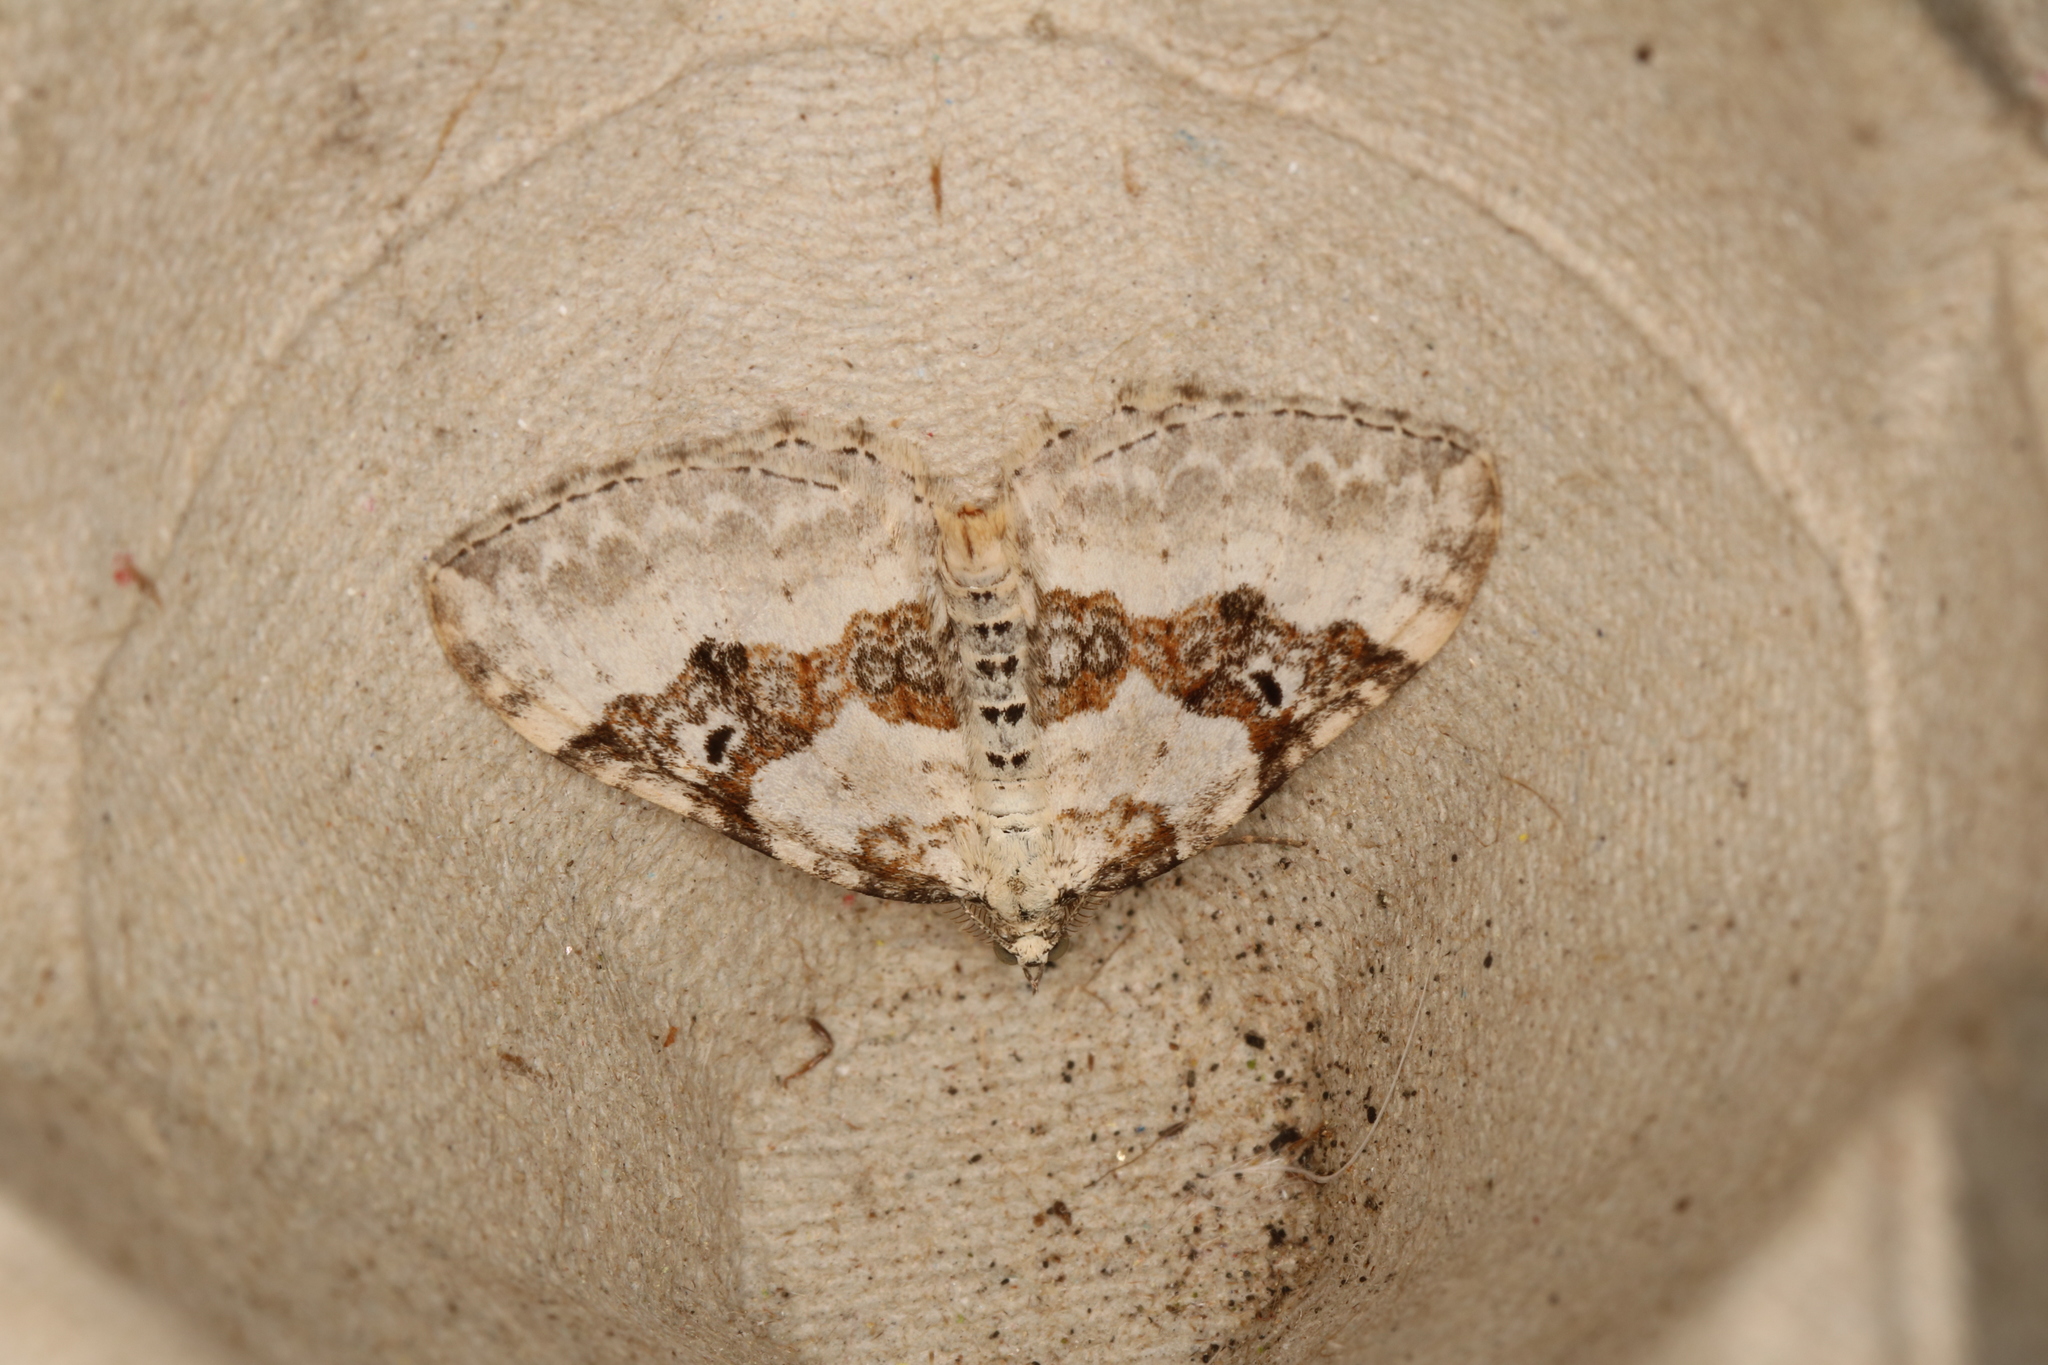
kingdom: Animalia
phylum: Arthropoda
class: Insecta
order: Lepidoptera
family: Geometridae
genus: Xanthorhoe
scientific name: Xanthorhoe montanata
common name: Silver-ground carpet
